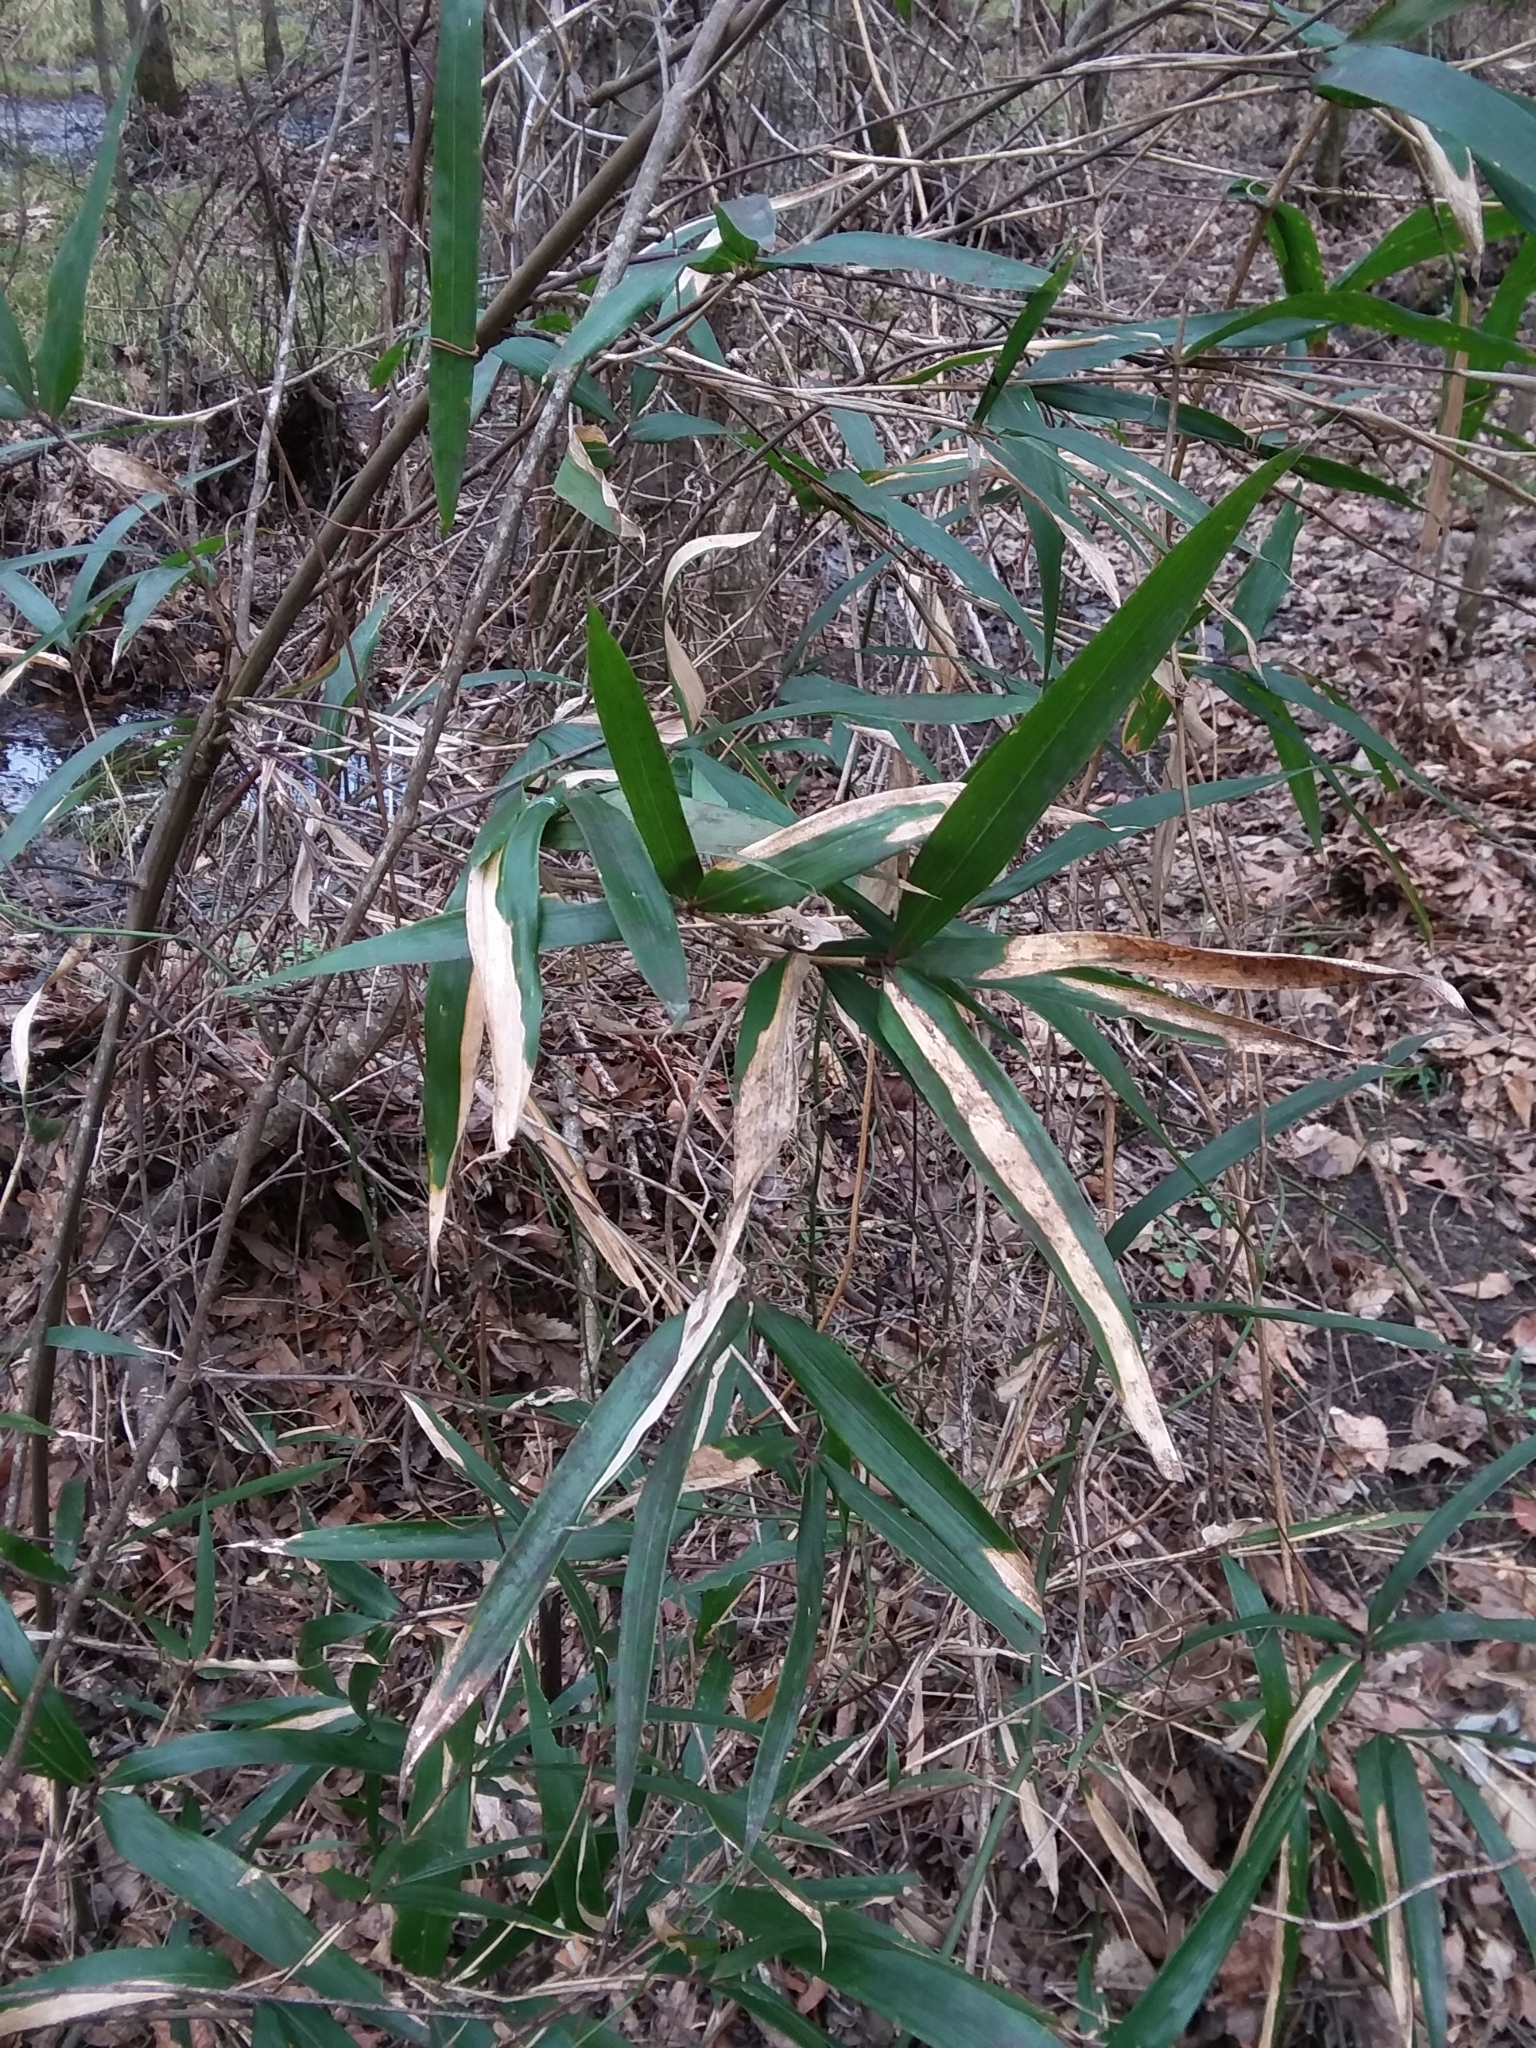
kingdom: Plantae
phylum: Tracheophyta
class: Liliopsida
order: Poales
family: Poaceae
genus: Arundinaria
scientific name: Arundinaria gigantea
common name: Giant cane
